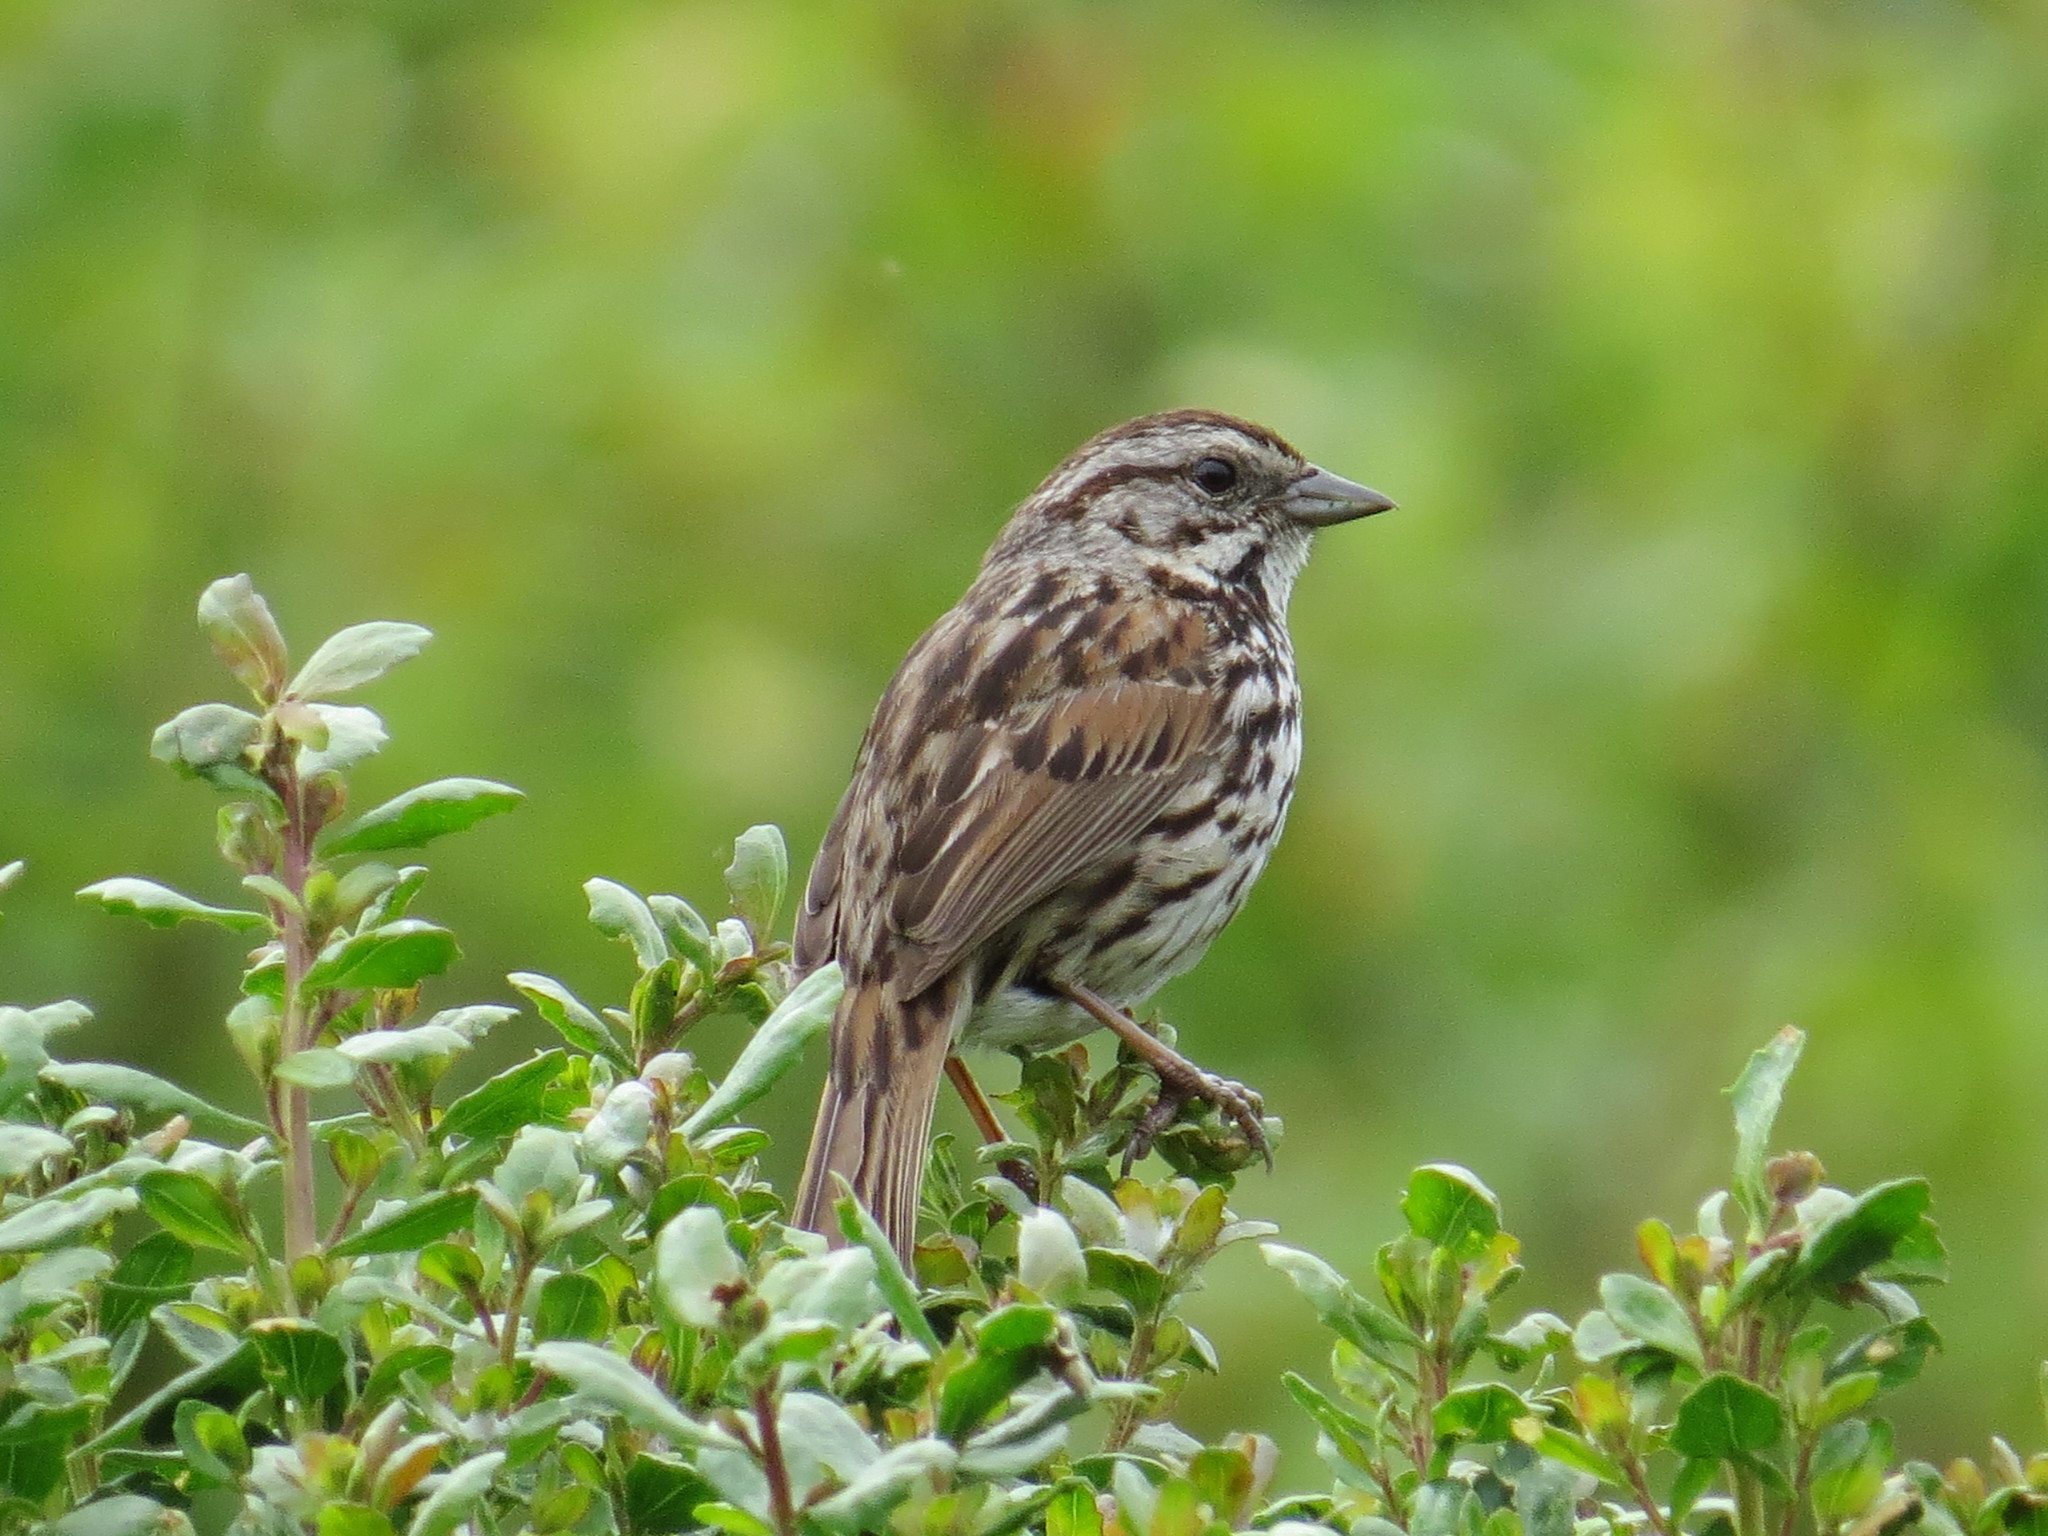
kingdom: Animalia
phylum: Chordata
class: Aves
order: Passeriformes
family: Passerellidae
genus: Melospiza
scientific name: Melospiza melodia
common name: Song sparrow
